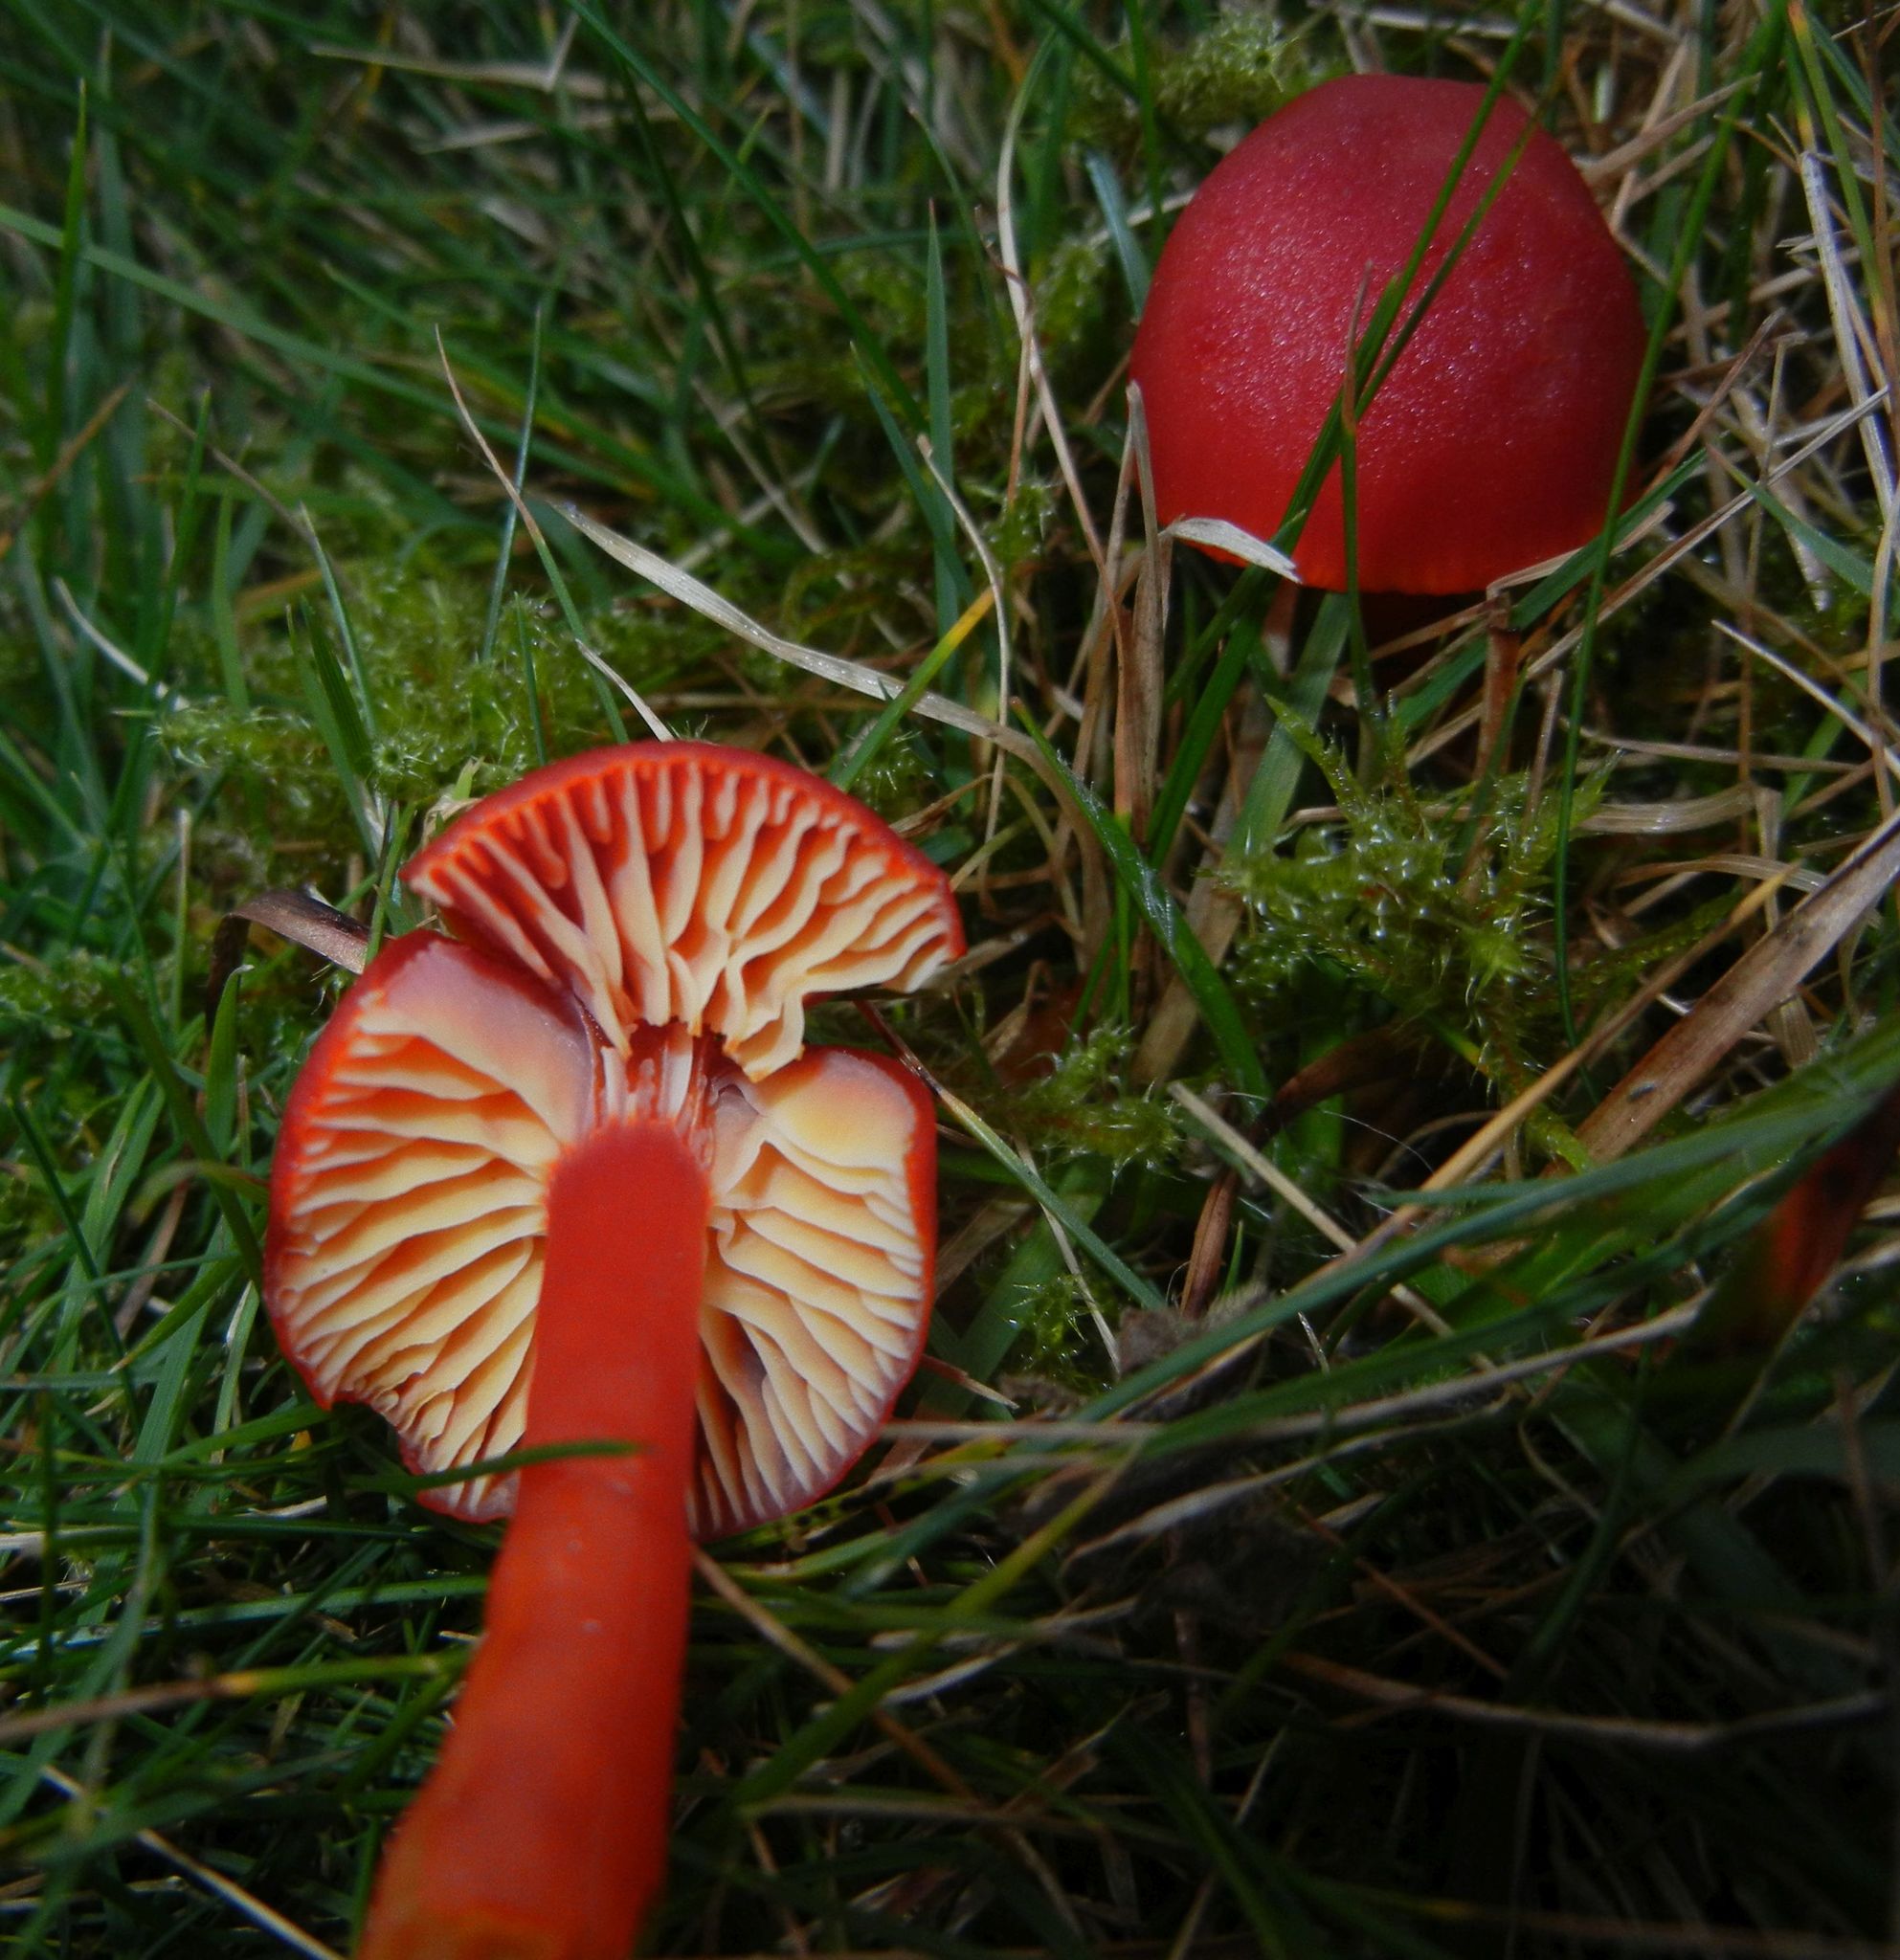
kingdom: Fungi
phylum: Basidiomycota
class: Agaricomycetes
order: Agaricales
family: Hygrophoraceae
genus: Hygrocybe
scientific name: Hygrocybe coccinea
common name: Scarlet hood
